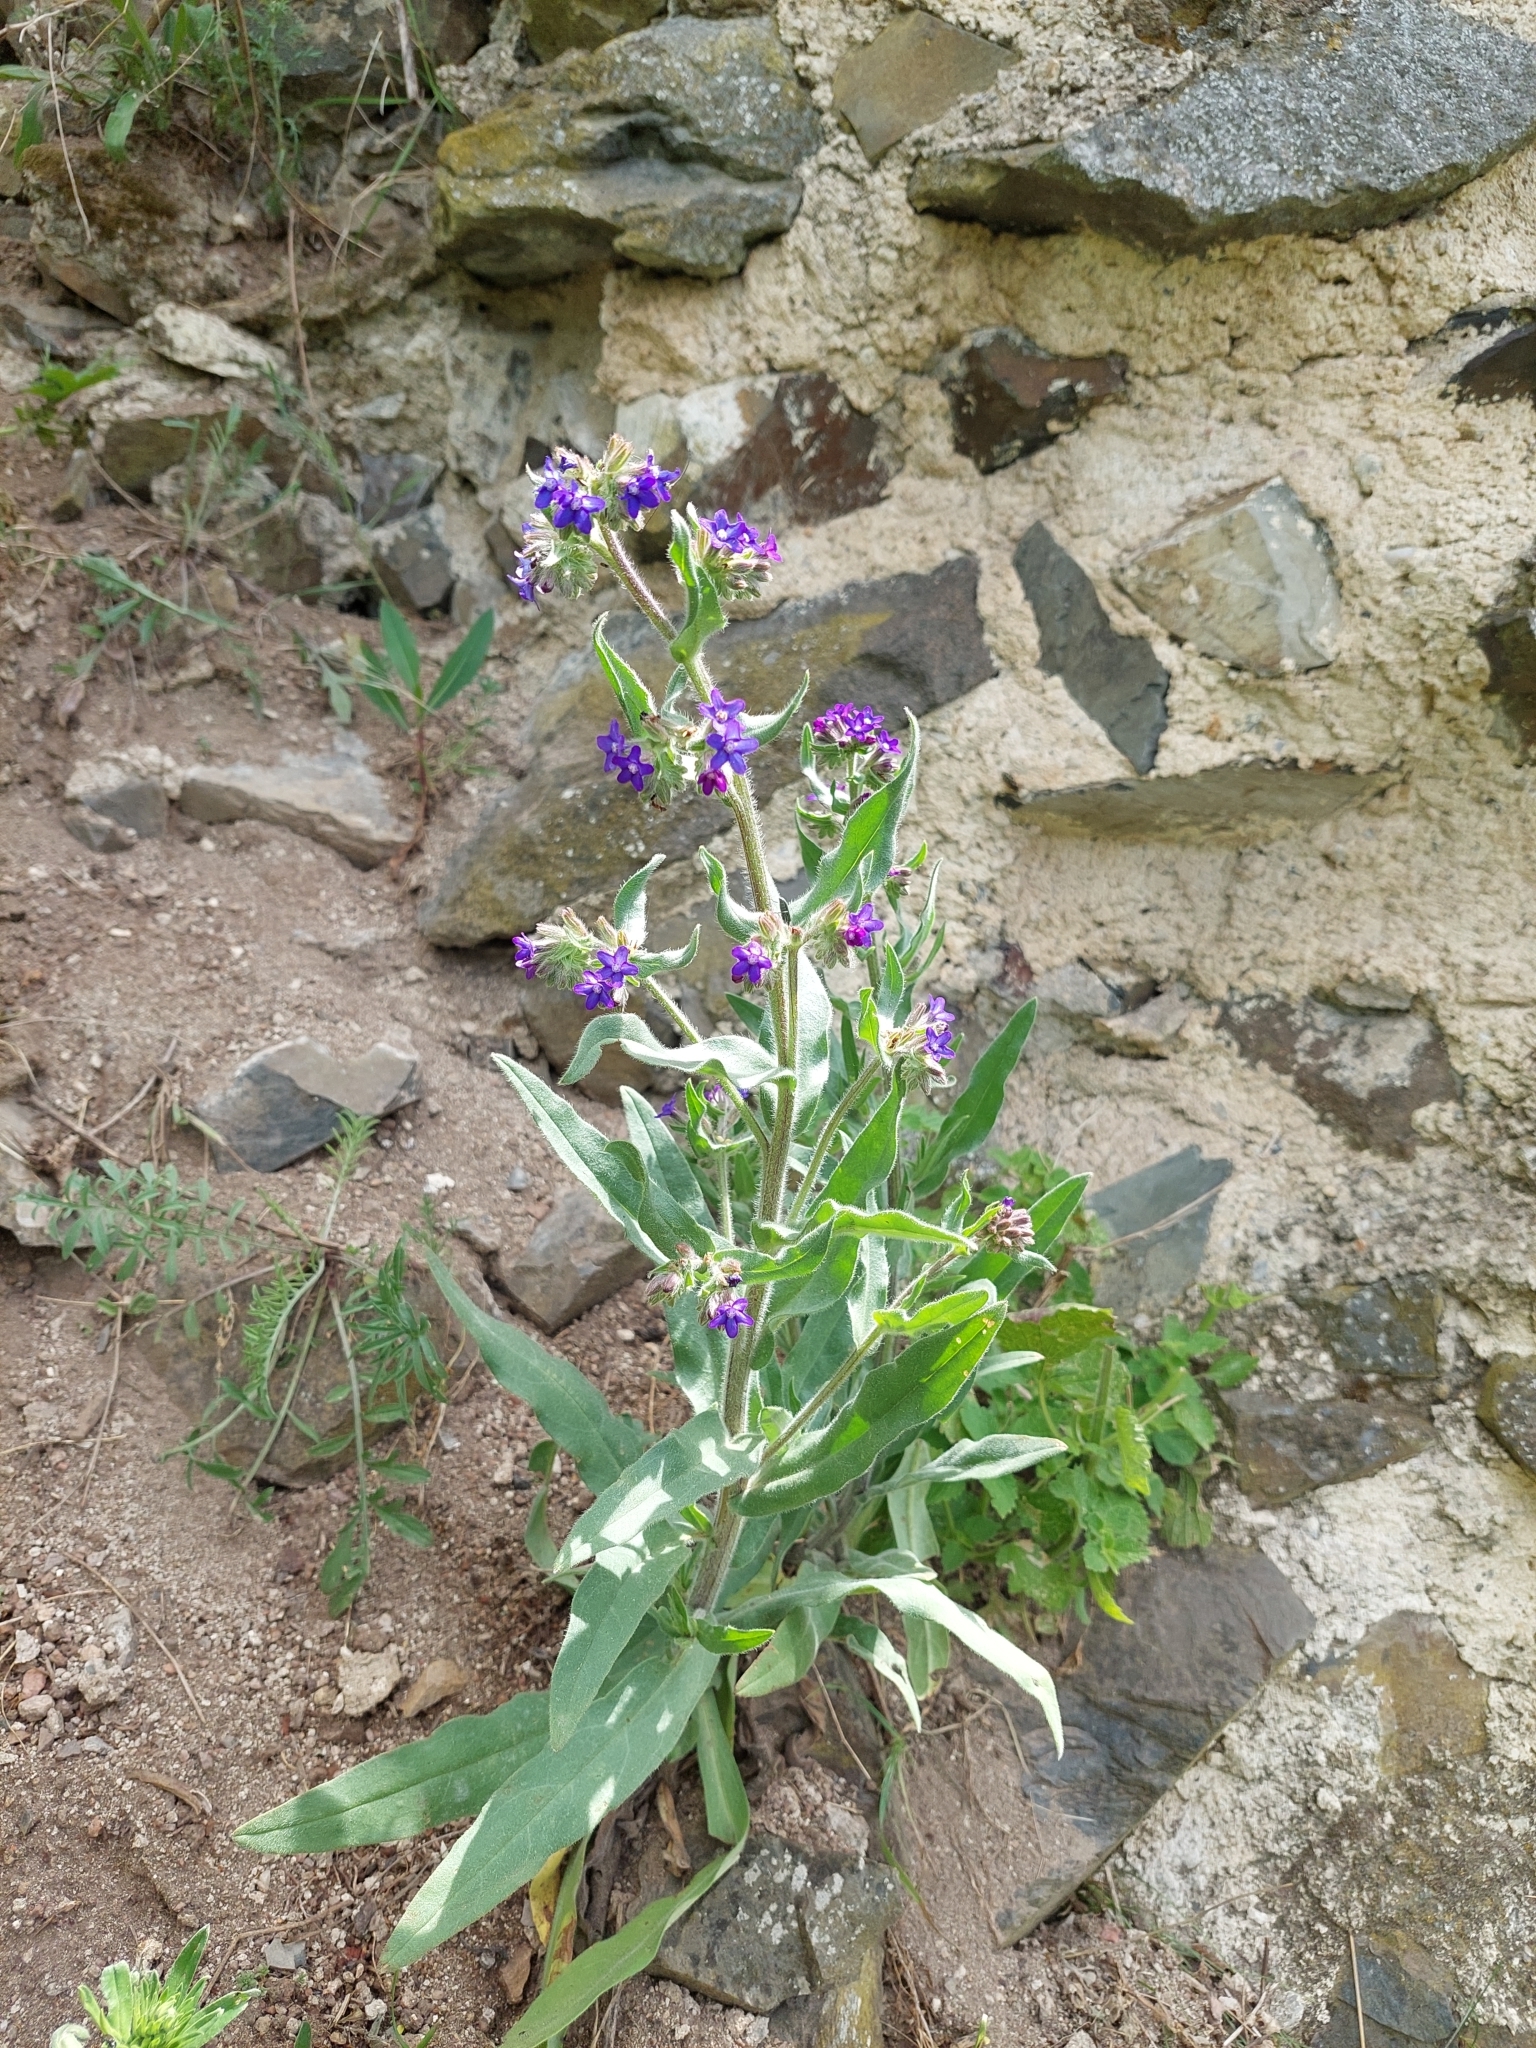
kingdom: Plantae
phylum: Tracheophyta
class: Magnoliopsida
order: Boraginales
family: Boraginaceae
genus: Anchusa
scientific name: Anchusa officinalis
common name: Alkanet
